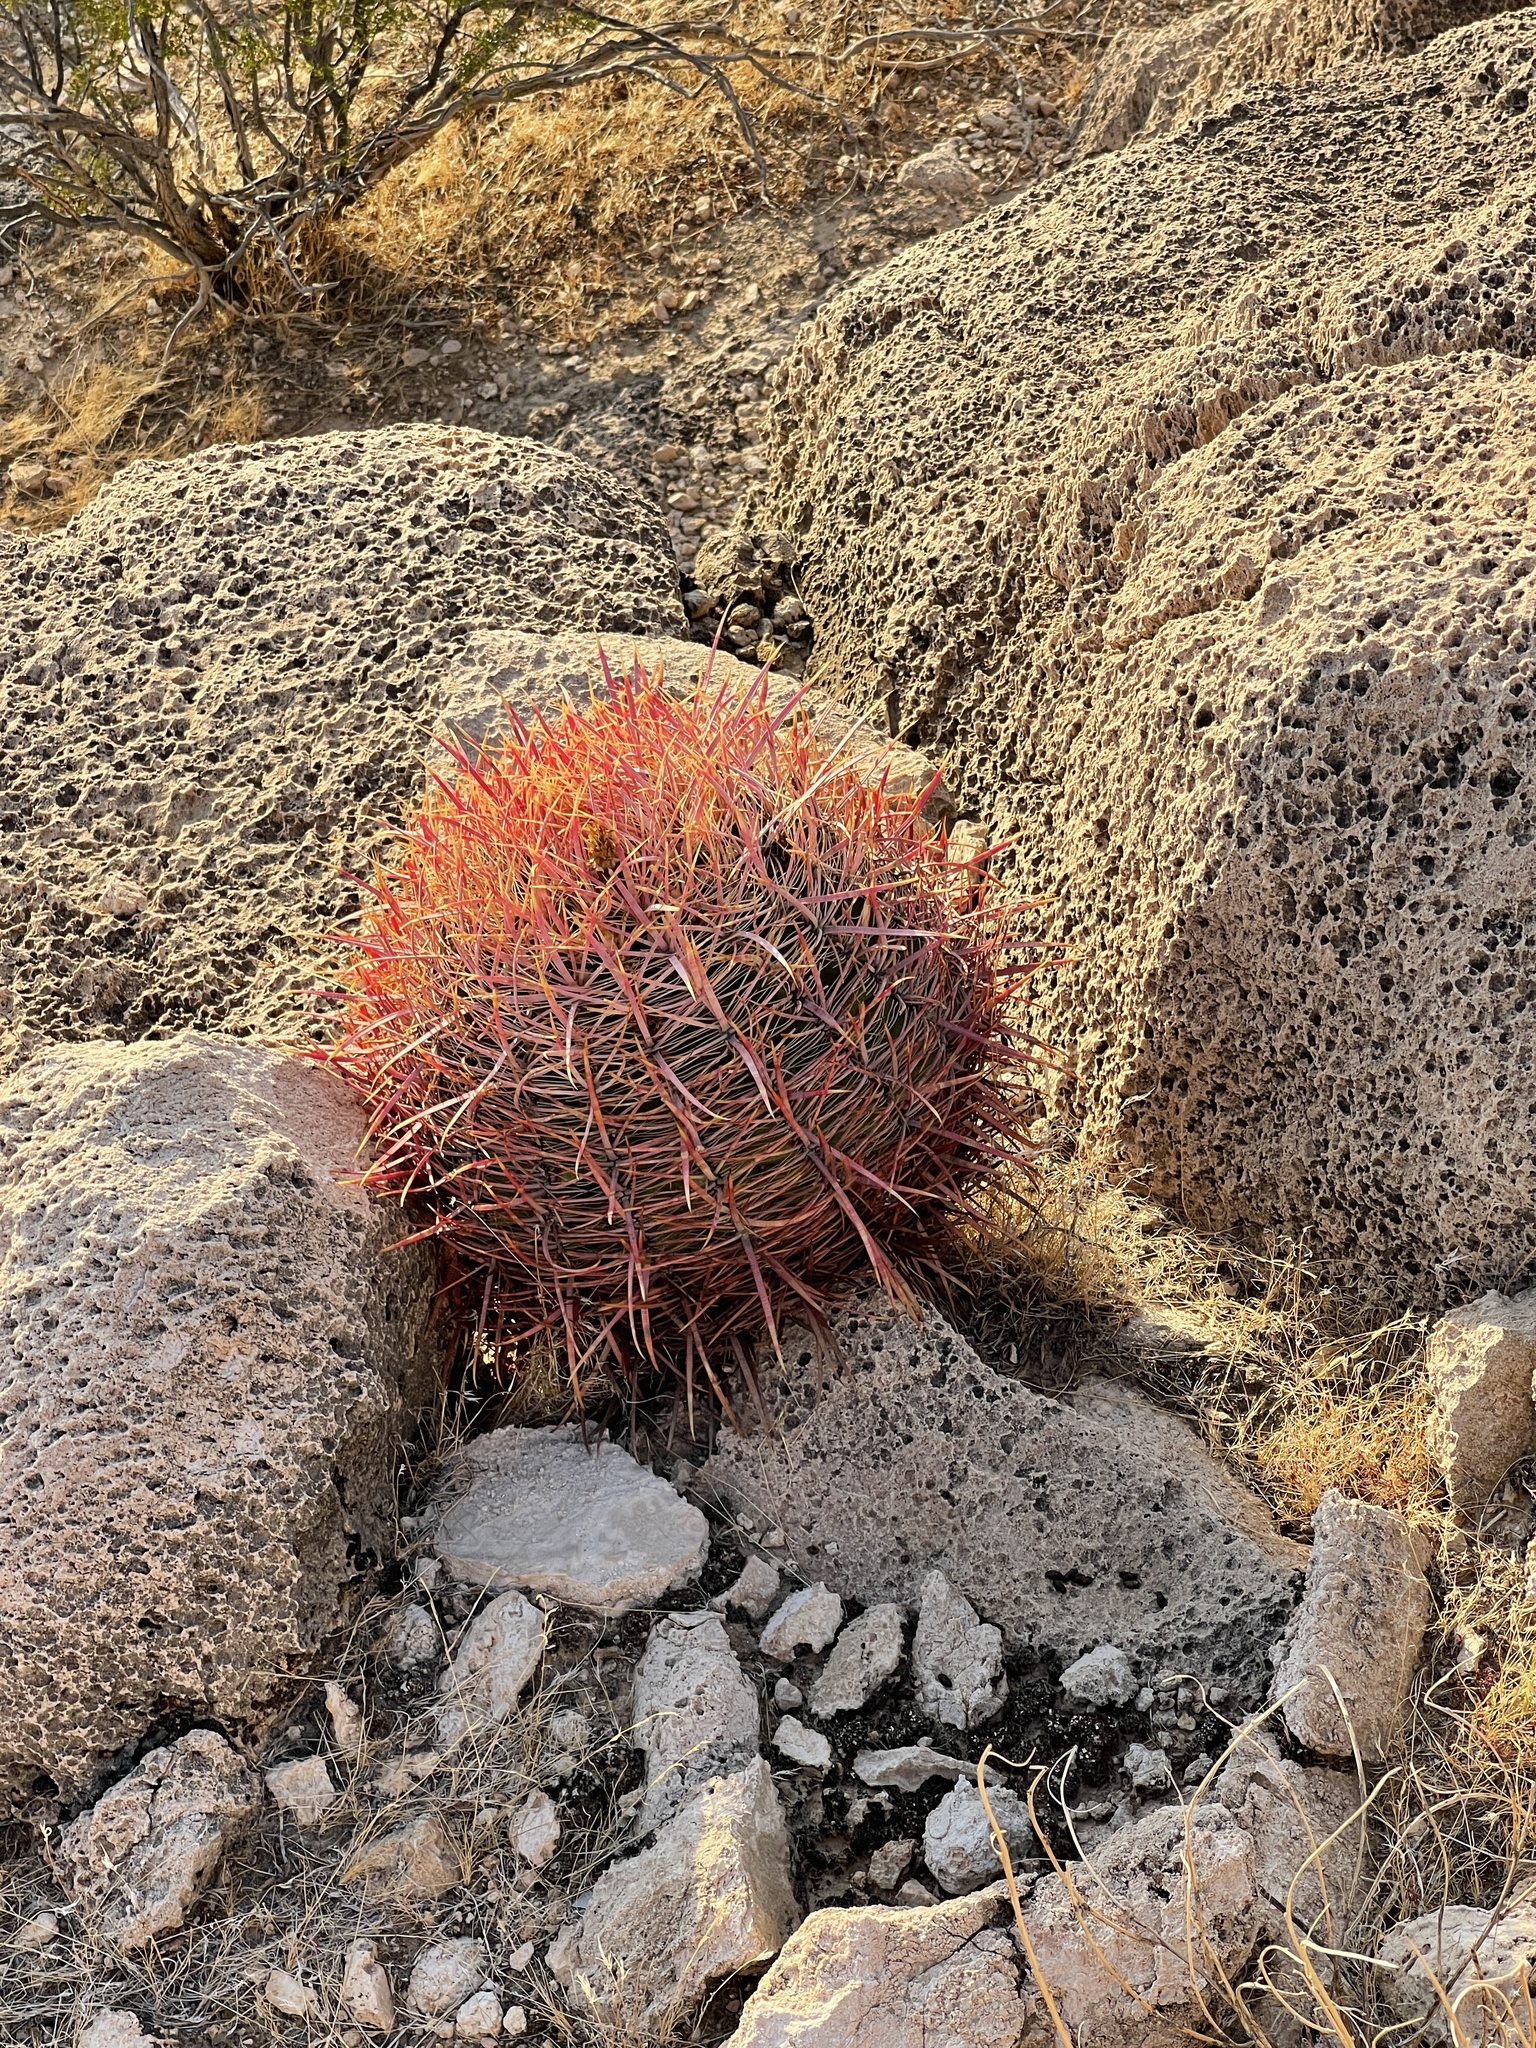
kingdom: Plantae
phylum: Tracheophyta
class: Magnoliopsida
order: Caryophyllales
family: Cactaceae
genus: Ferocactus
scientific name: Ferocactus cylindraceus
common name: California barrel cactus
